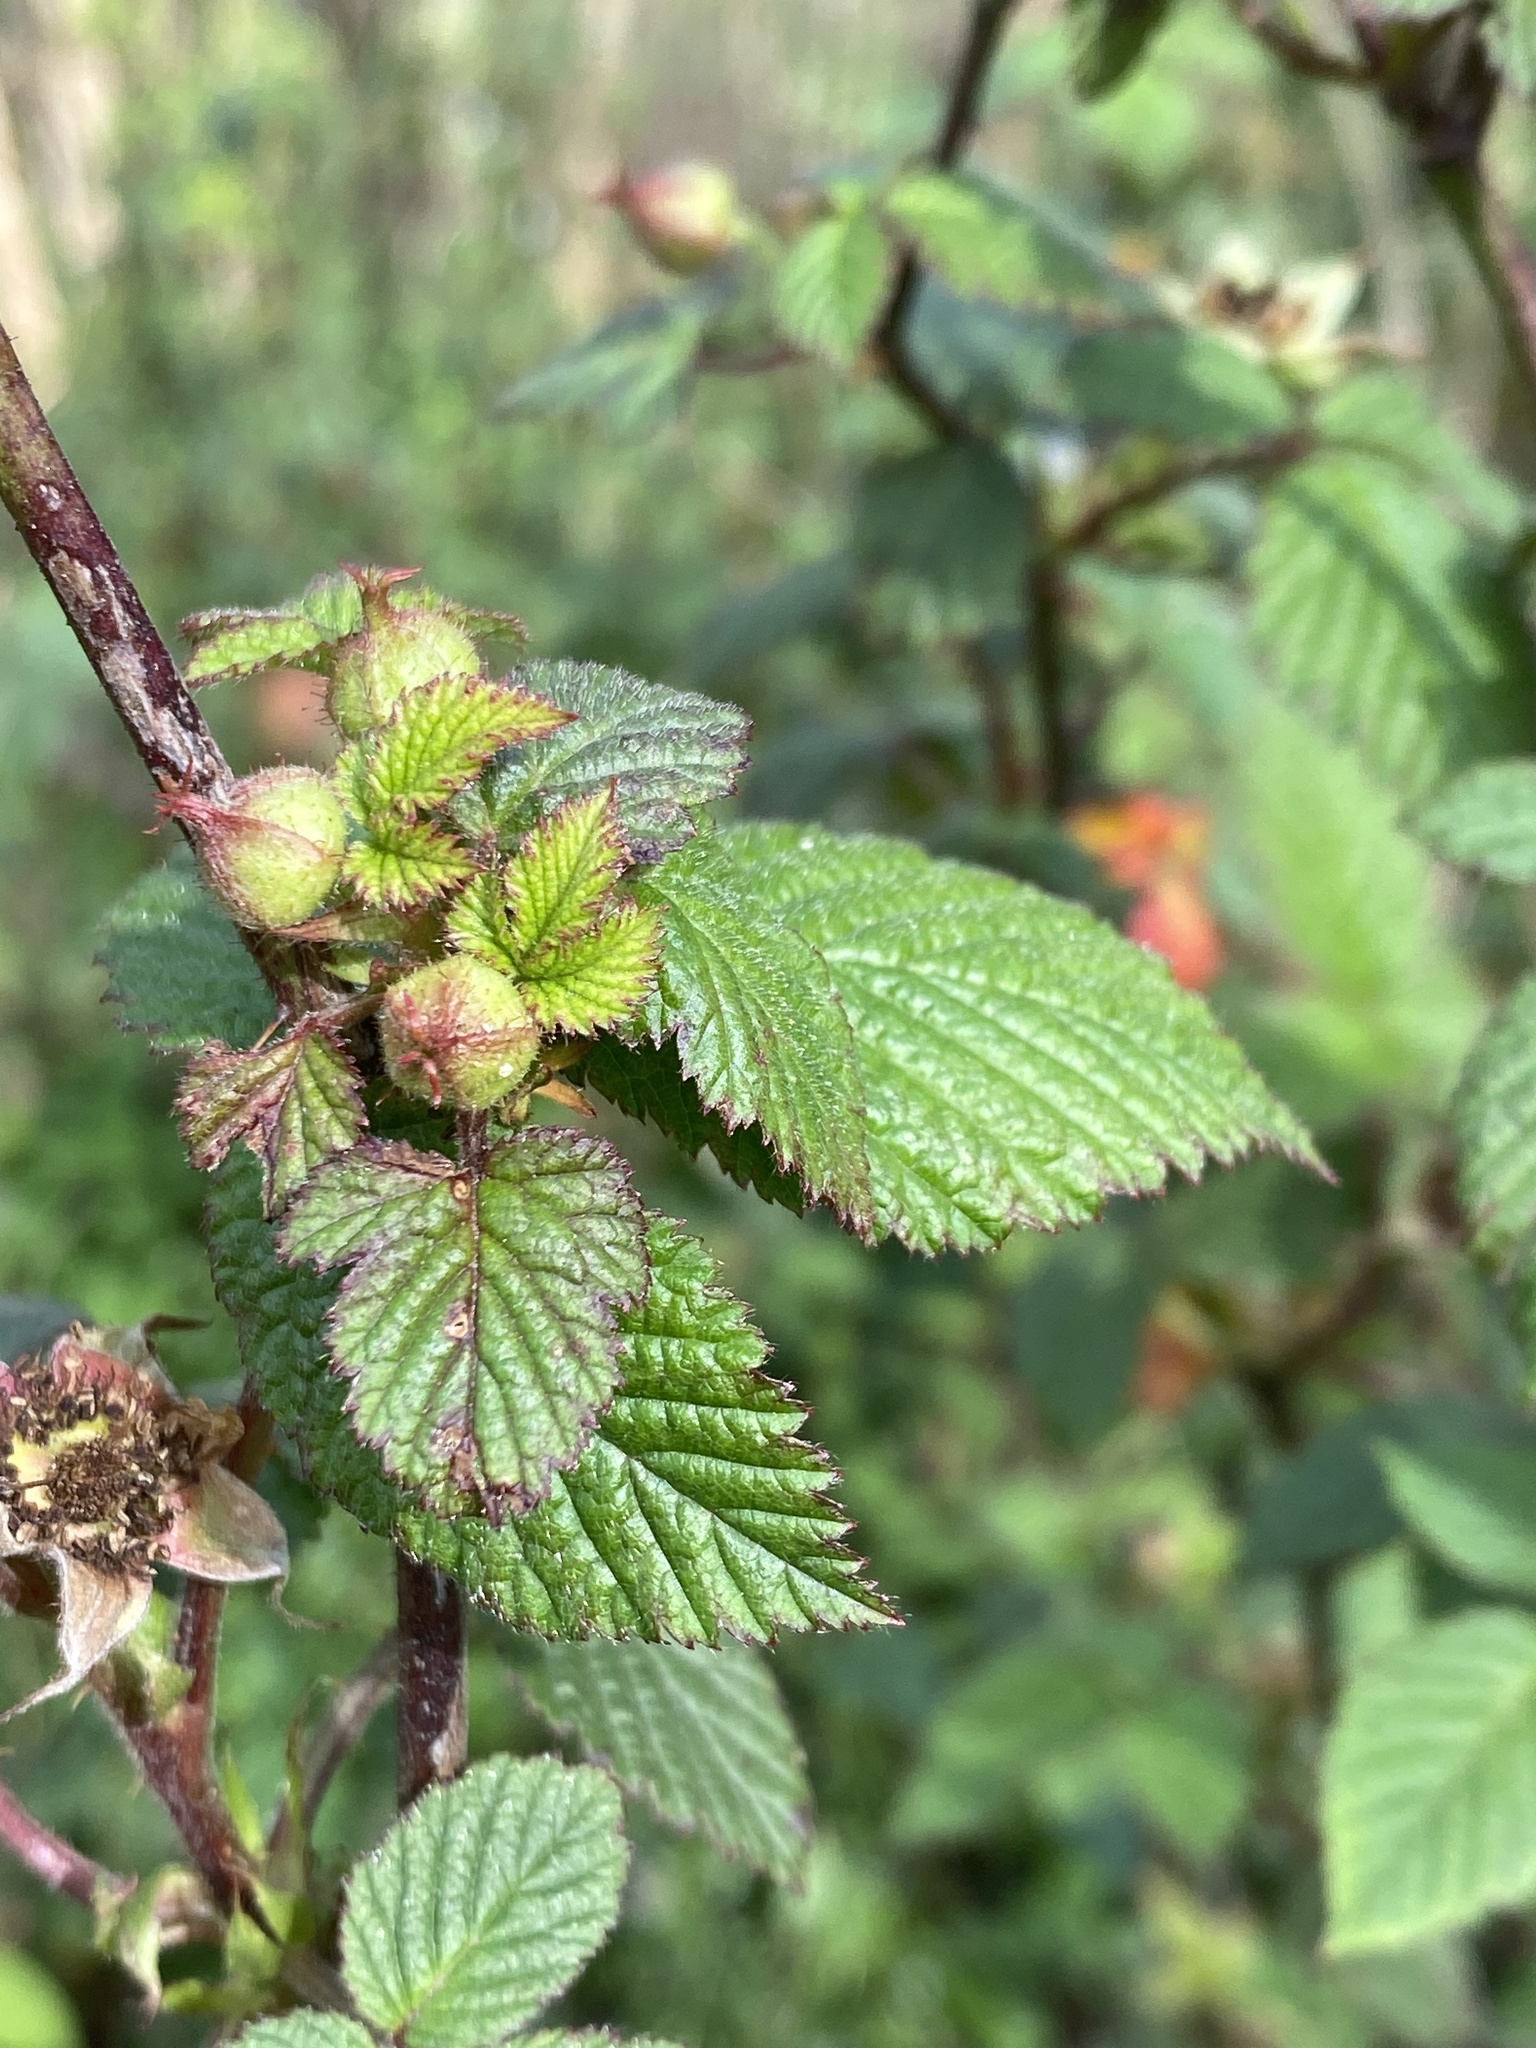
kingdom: Plantae
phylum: Tracheophyta
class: Magnoliopsida
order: Rosales
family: Rosaceae
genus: Rubus
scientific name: Rubus hirsutus
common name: Hirsute raspberry
